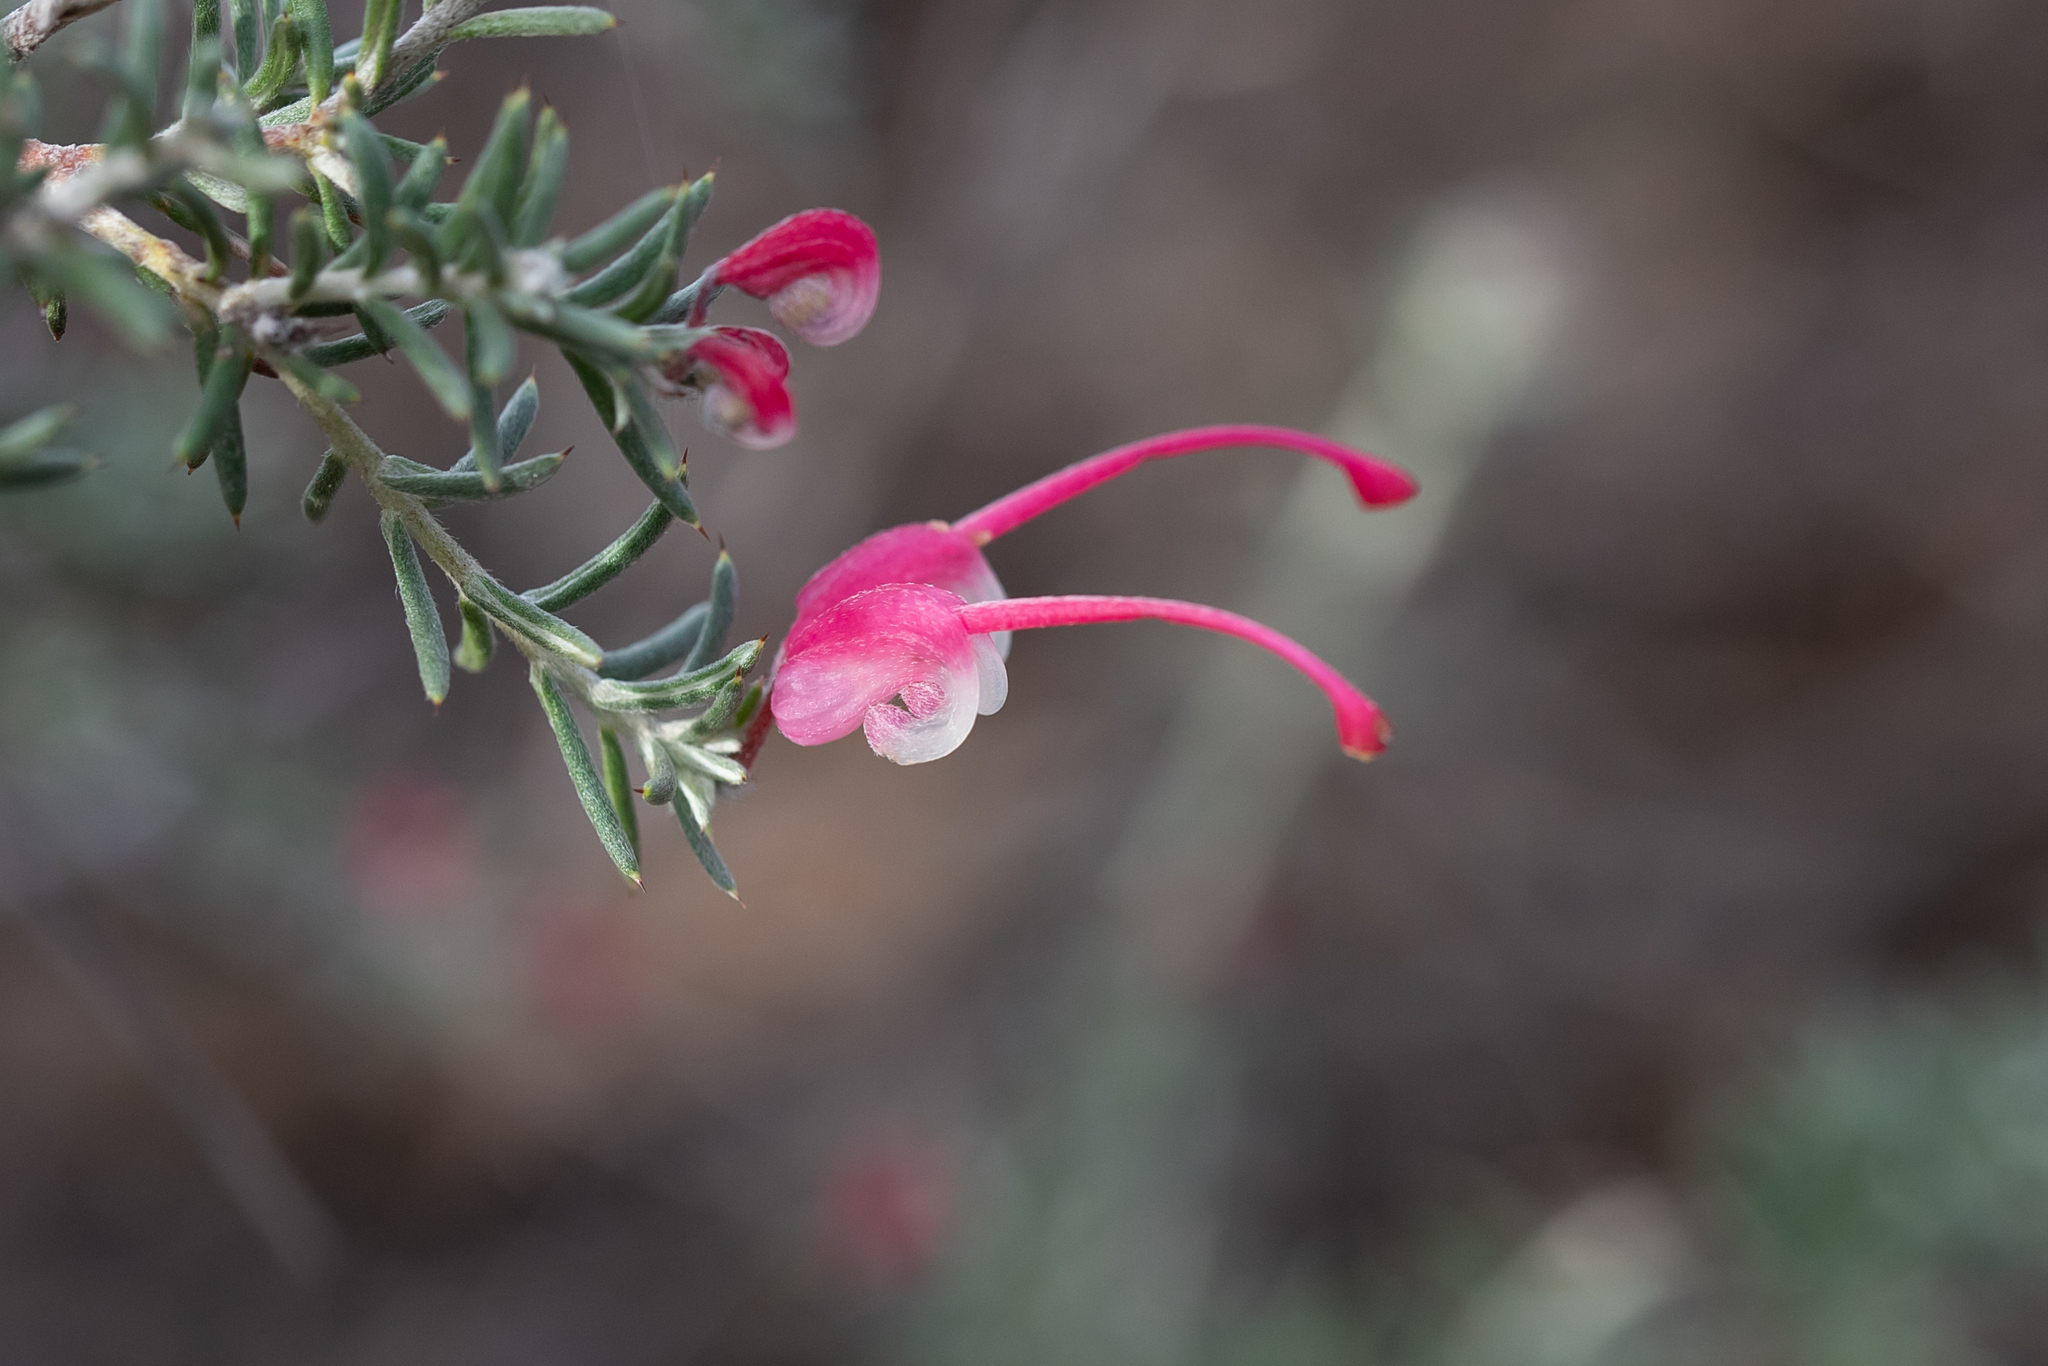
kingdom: Plantae
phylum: Tracheophyta
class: Magnoliopsida
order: Proteales
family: Proteaceae
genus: Grevillea
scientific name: Grevillea lavandulacea
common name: Lavender grevillea
